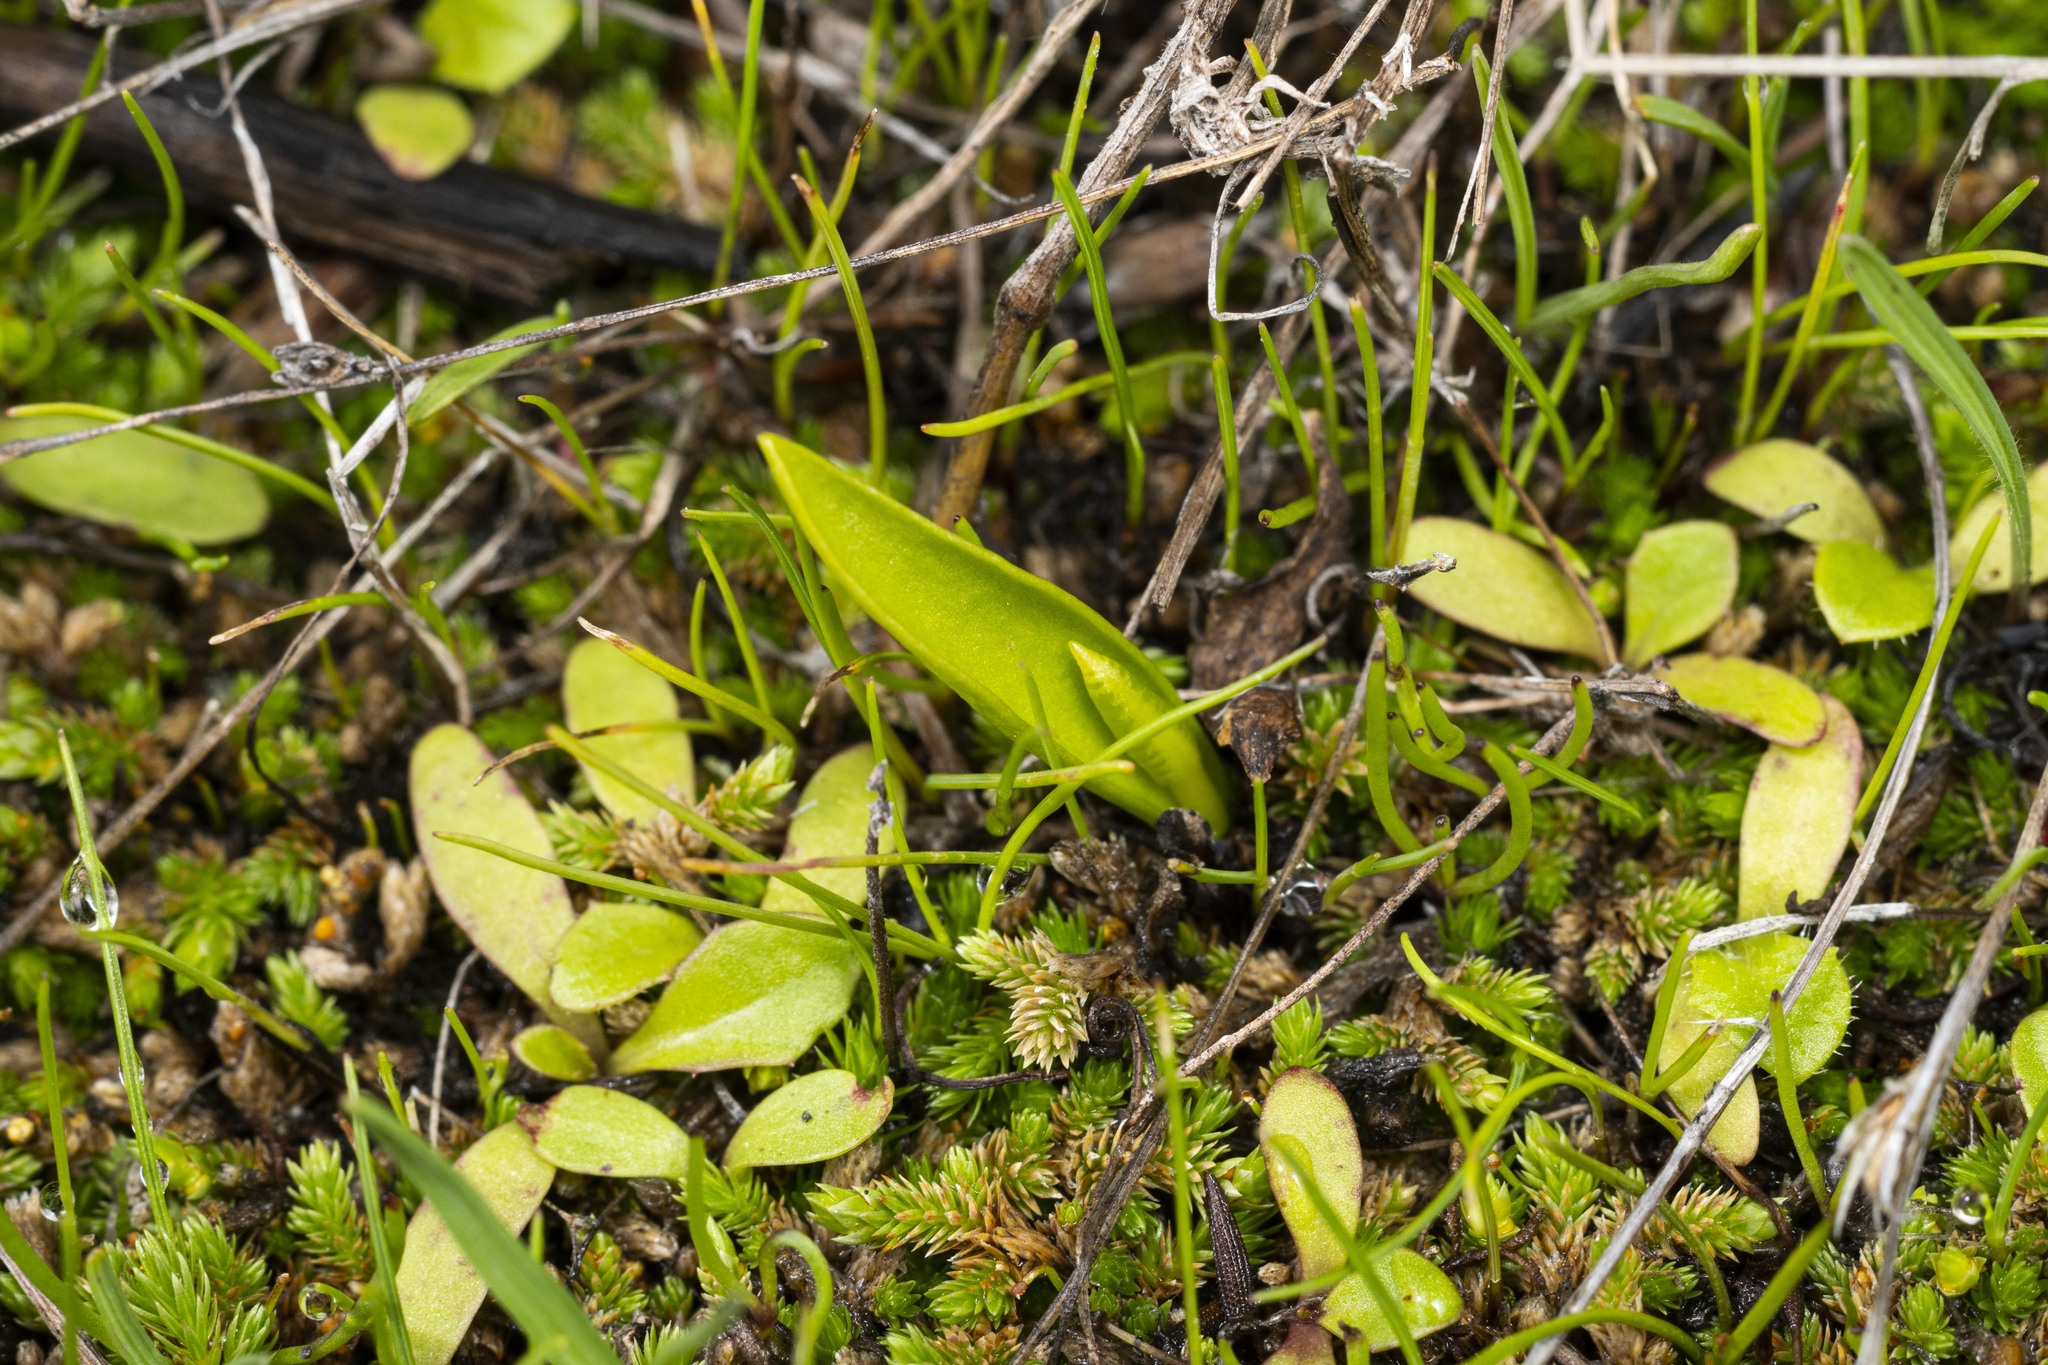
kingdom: Plantae
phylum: Tracheophyta
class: Polypodiopsida
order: Ophioglossales
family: Ophioglossaceae
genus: Ophioglossum
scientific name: Ophioglossum californicum
